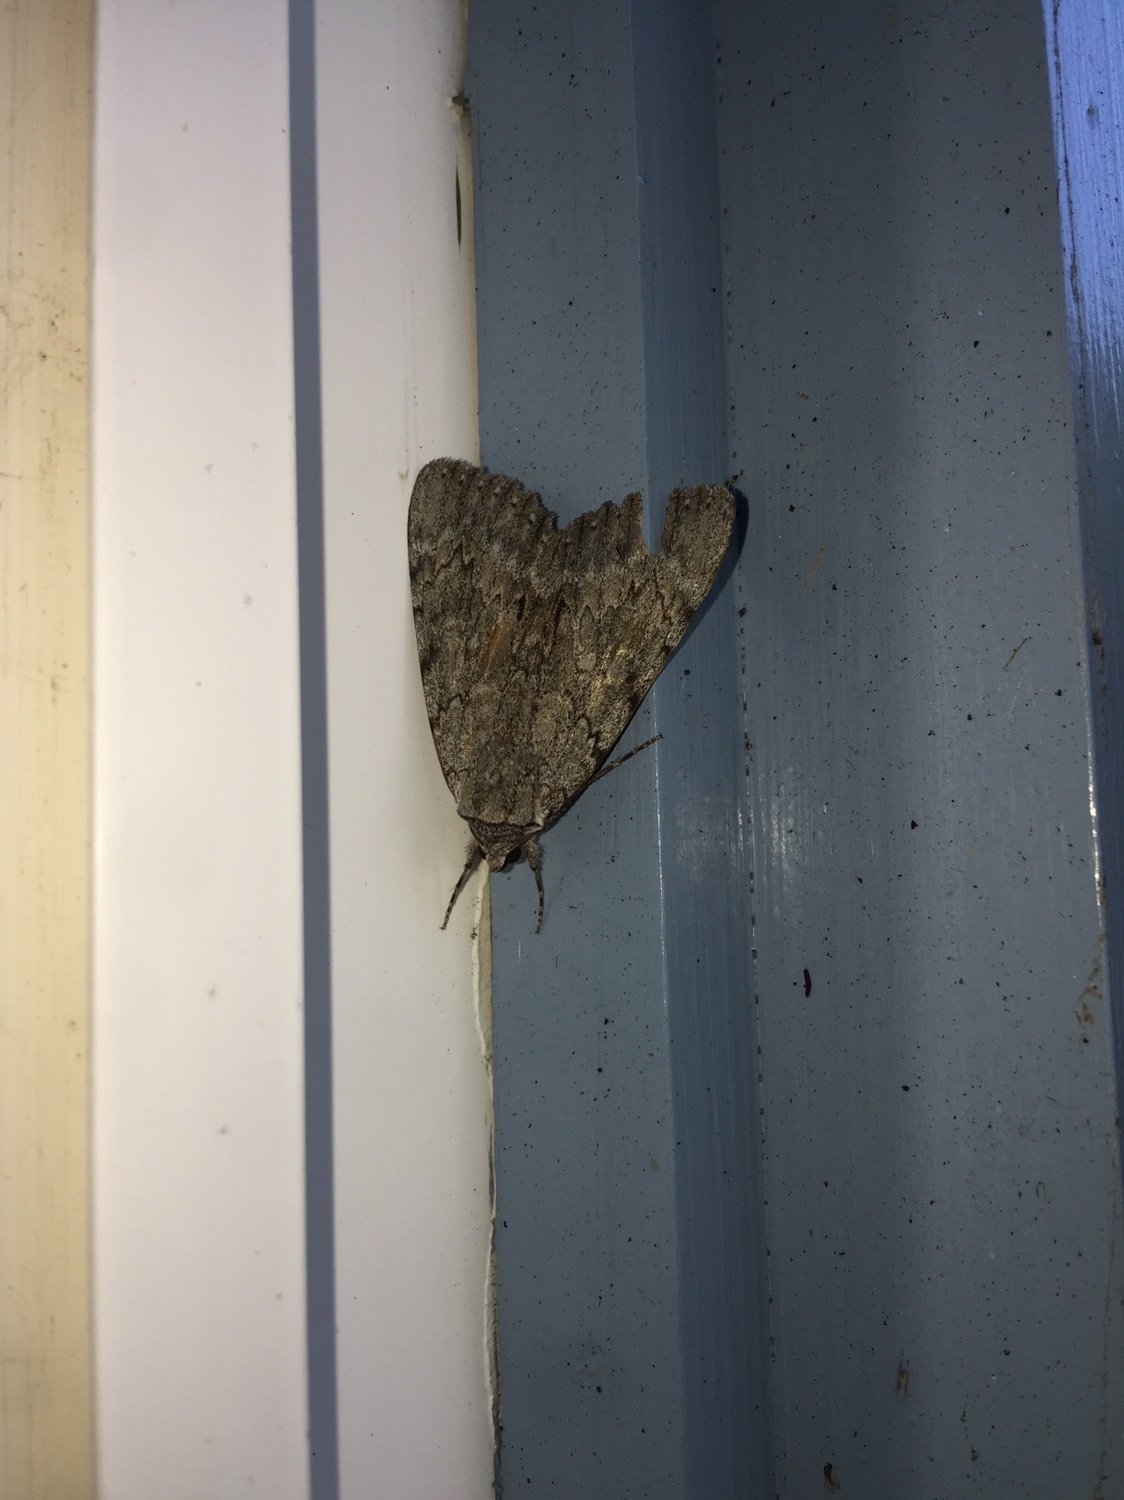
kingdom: Animalia
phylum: Arthropoda
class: Insecta
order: Lepidoptera
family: Erebidae
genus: Catocala
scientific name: Catocala habilis
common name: Habilis underwing
